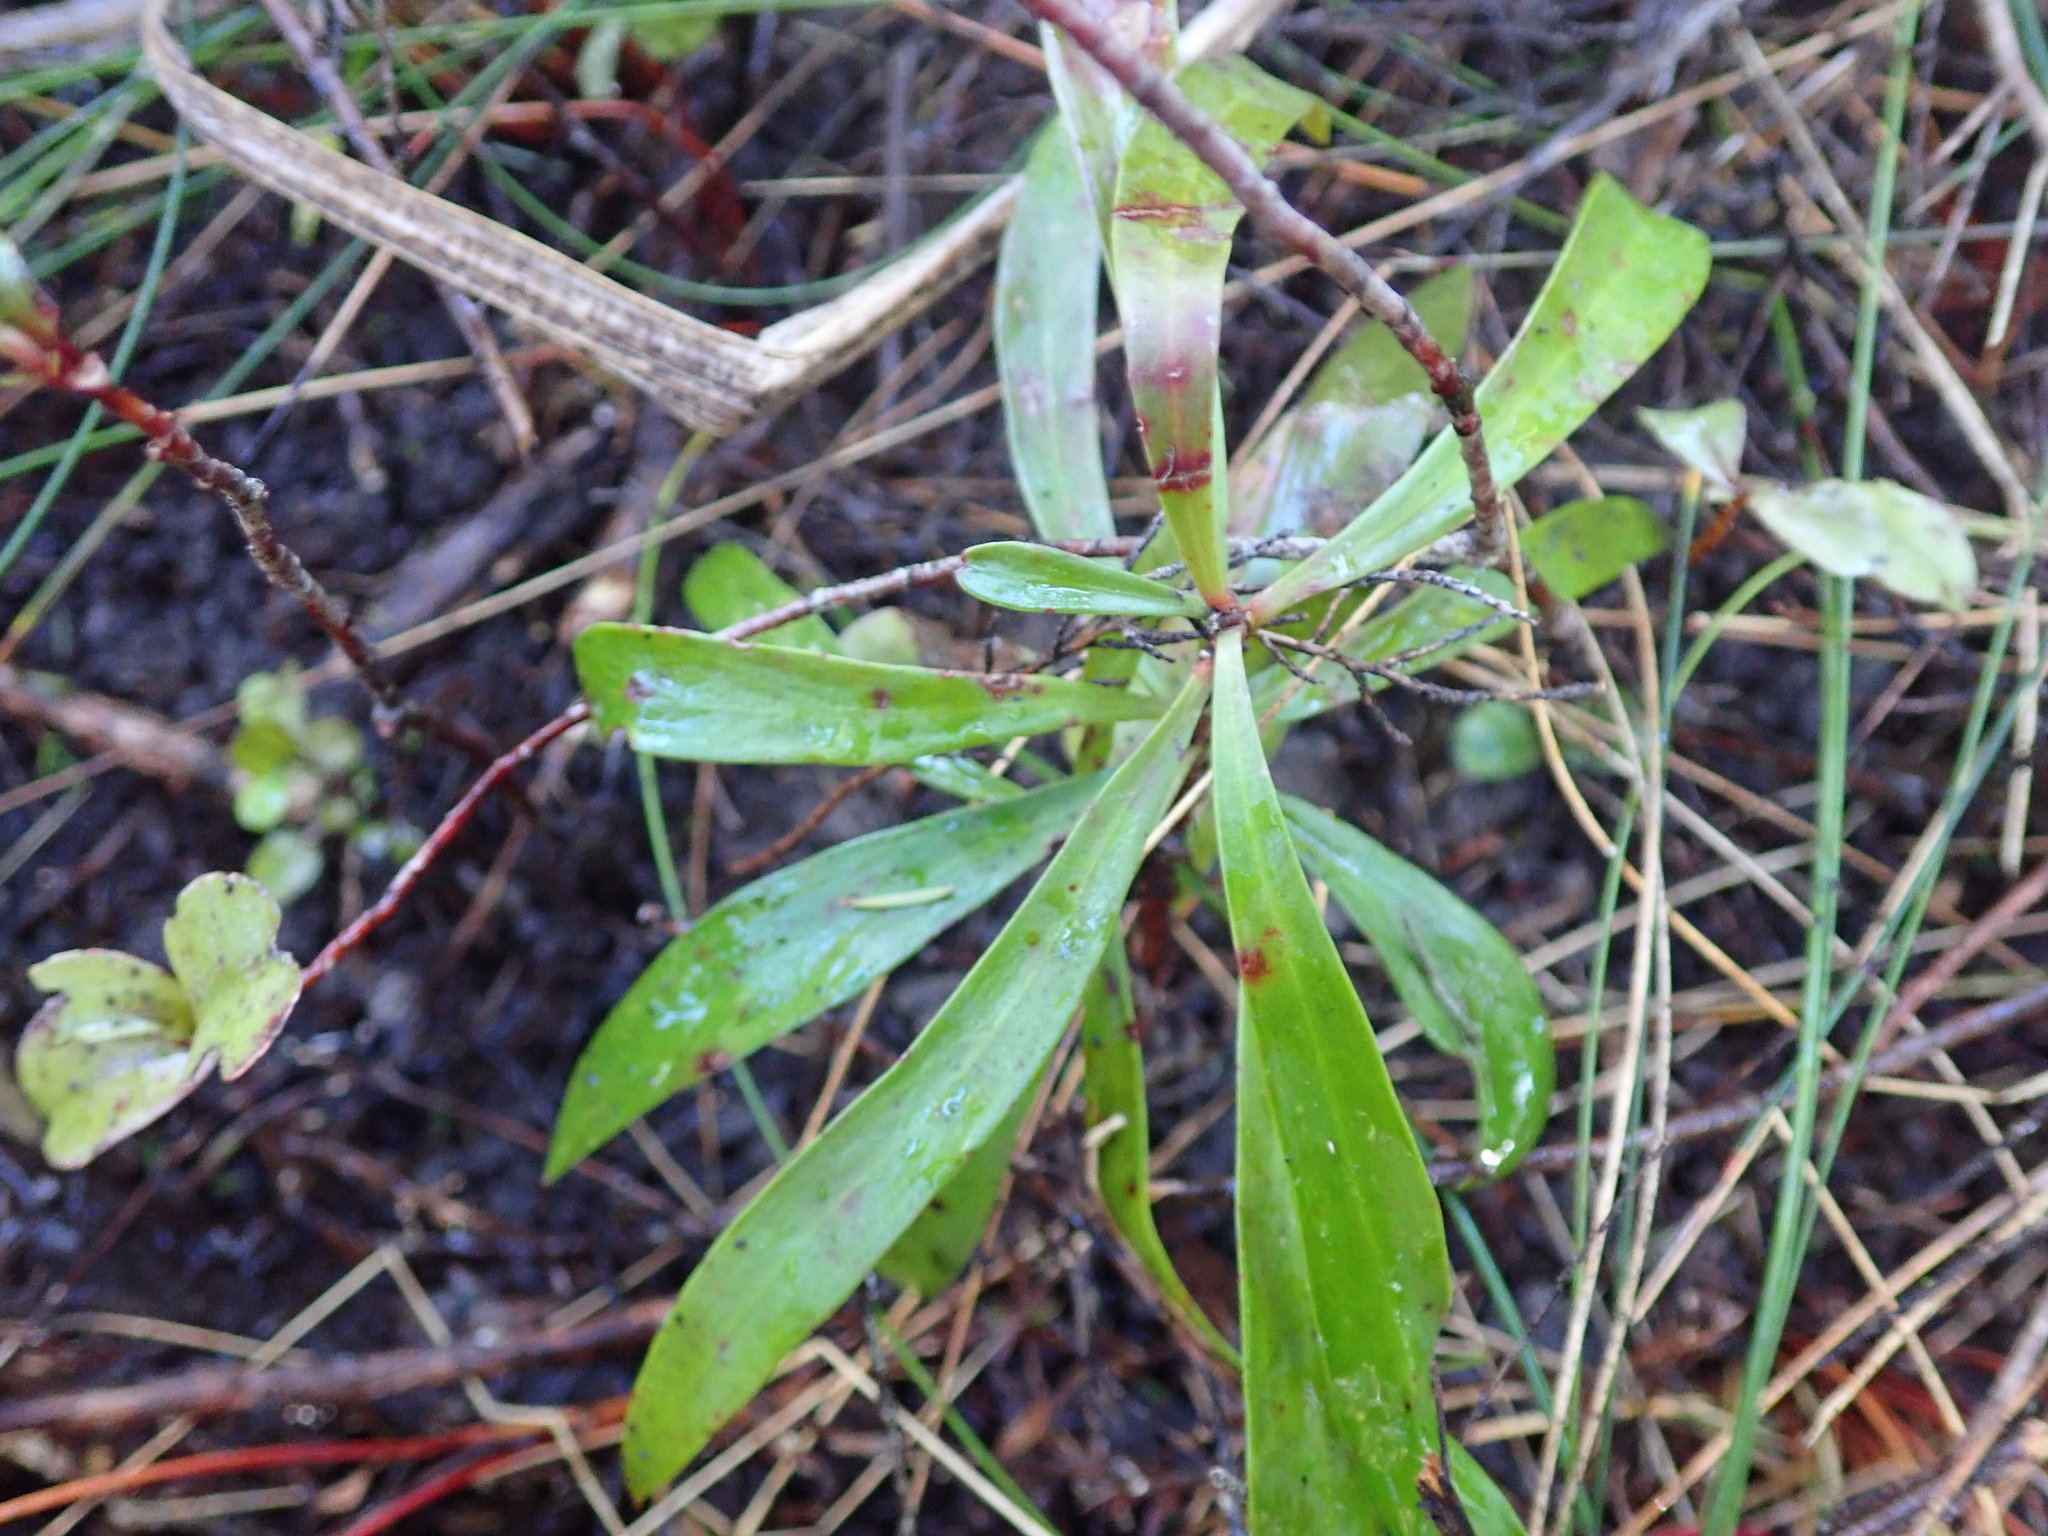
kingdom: Plantae
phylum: Tracheophyta
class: Magnoliopsida
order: Proteales
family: Proteaceae
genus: Toronia
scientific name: Toronia toru
